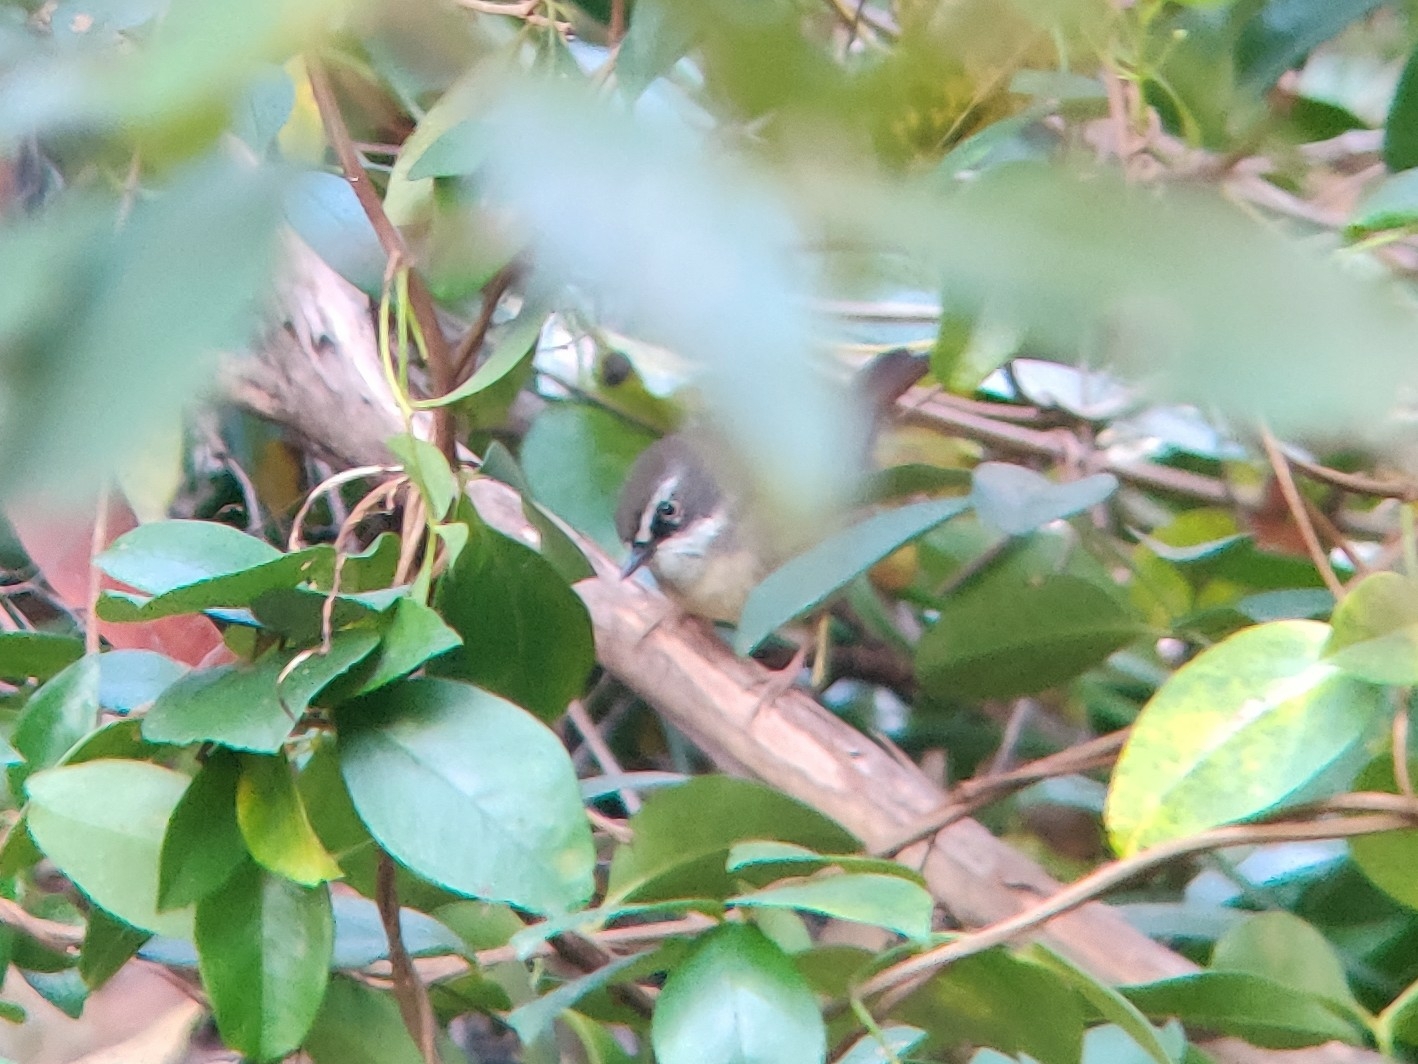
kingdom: Animalia
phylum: Chordata
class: Aves
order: Passeriformes
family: Acanthizidae
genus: Sericornis
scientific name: Sericornis frontalis
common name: White-browed scrubwren
